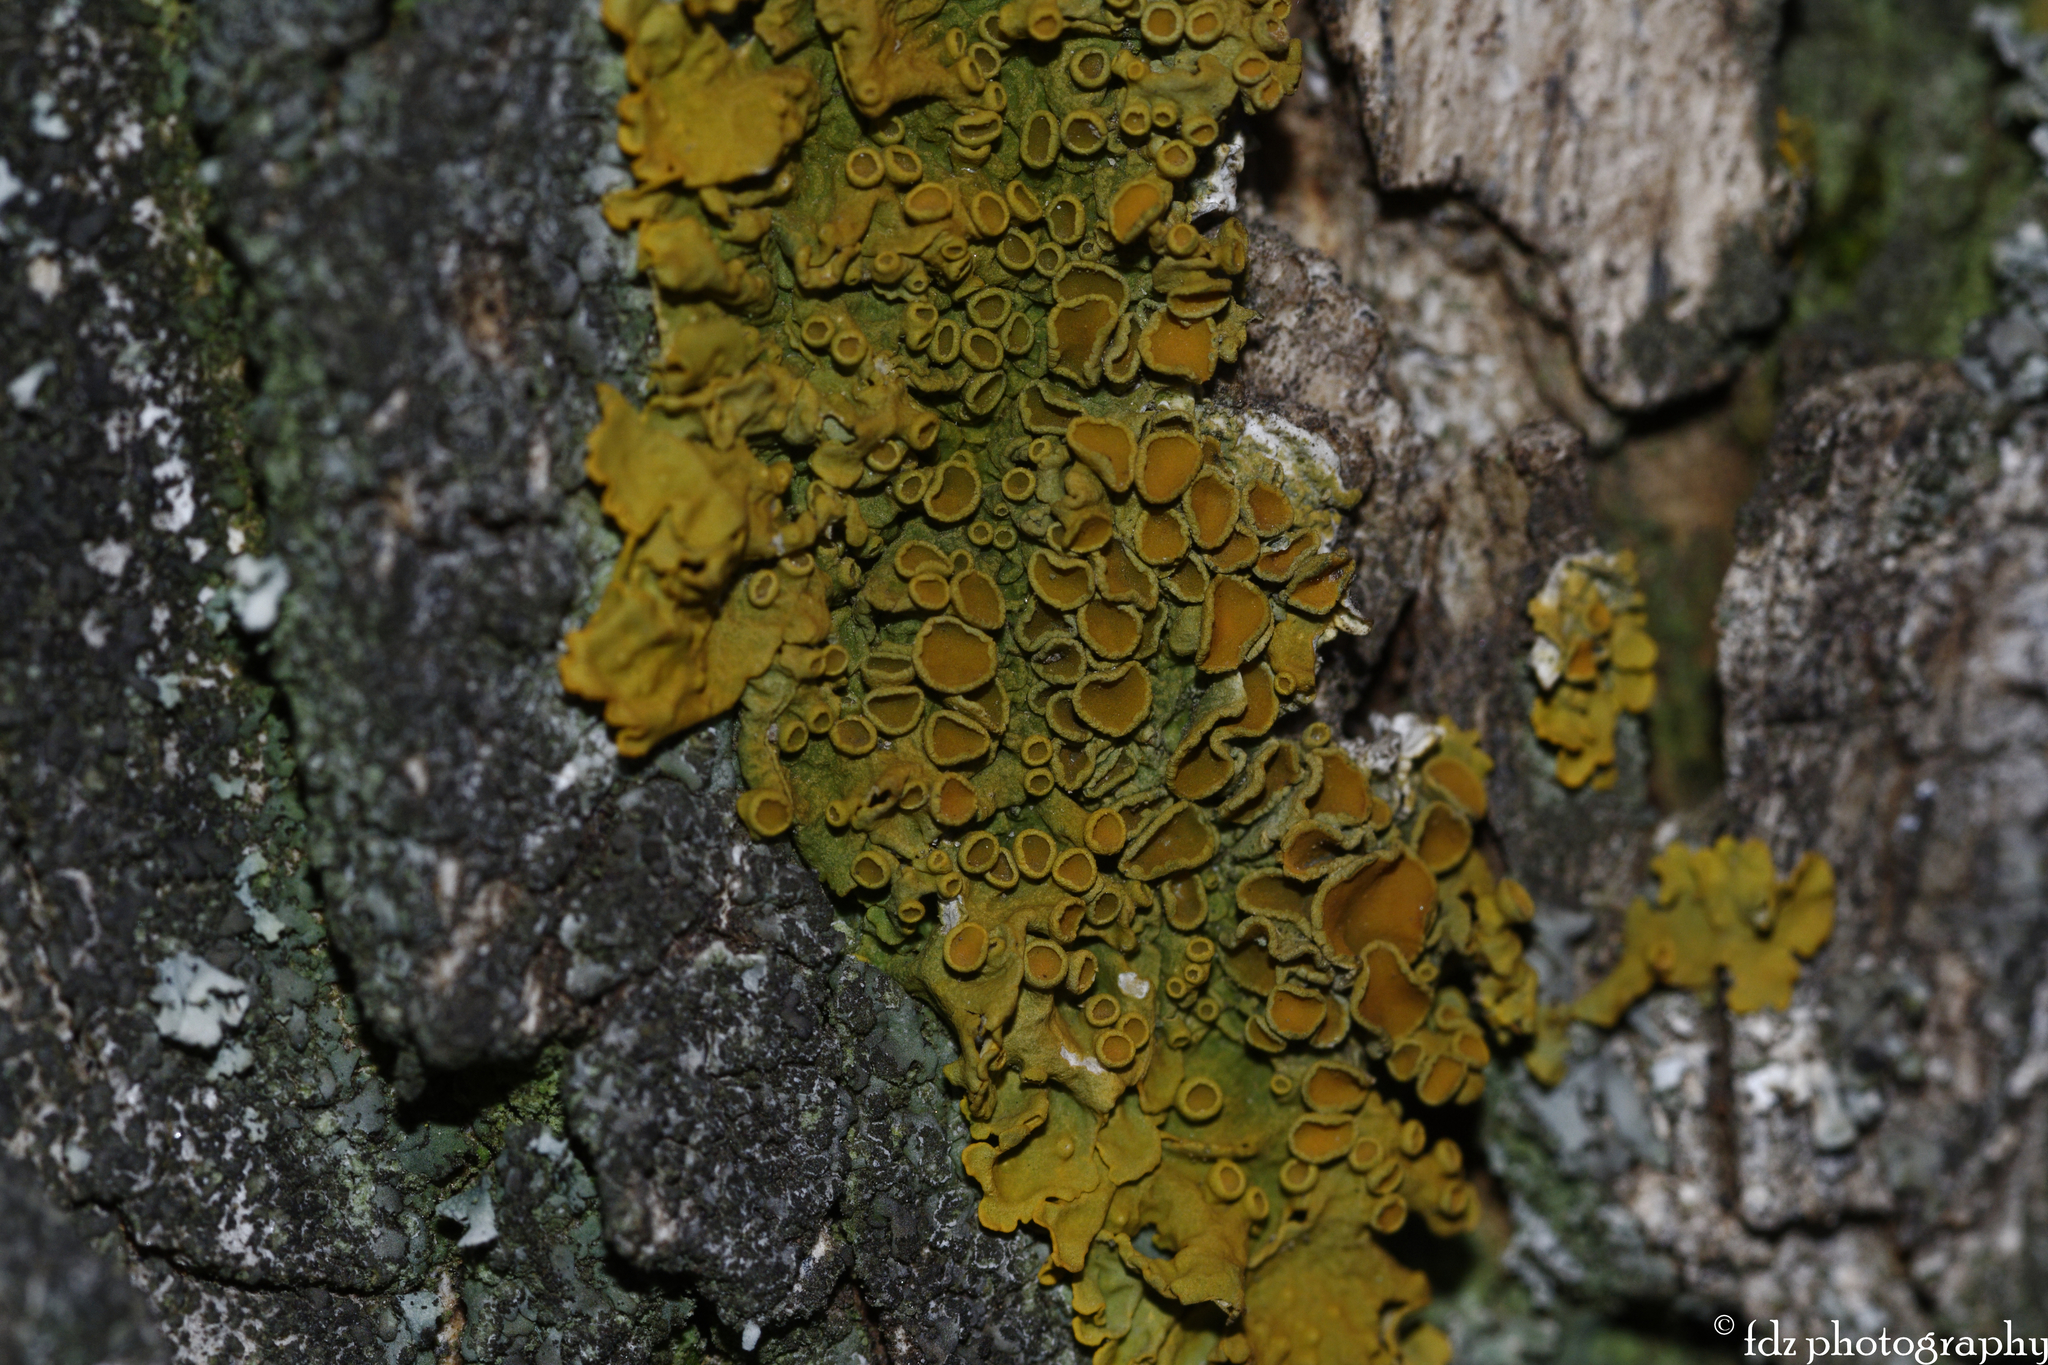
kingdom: Fungi
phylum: Ascomycota
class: Lecanoromycetes
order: Teloschistales
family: Teloschistaceae
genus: Xanthoria
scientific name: Xanthoria parietina
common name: Common orange lichen
